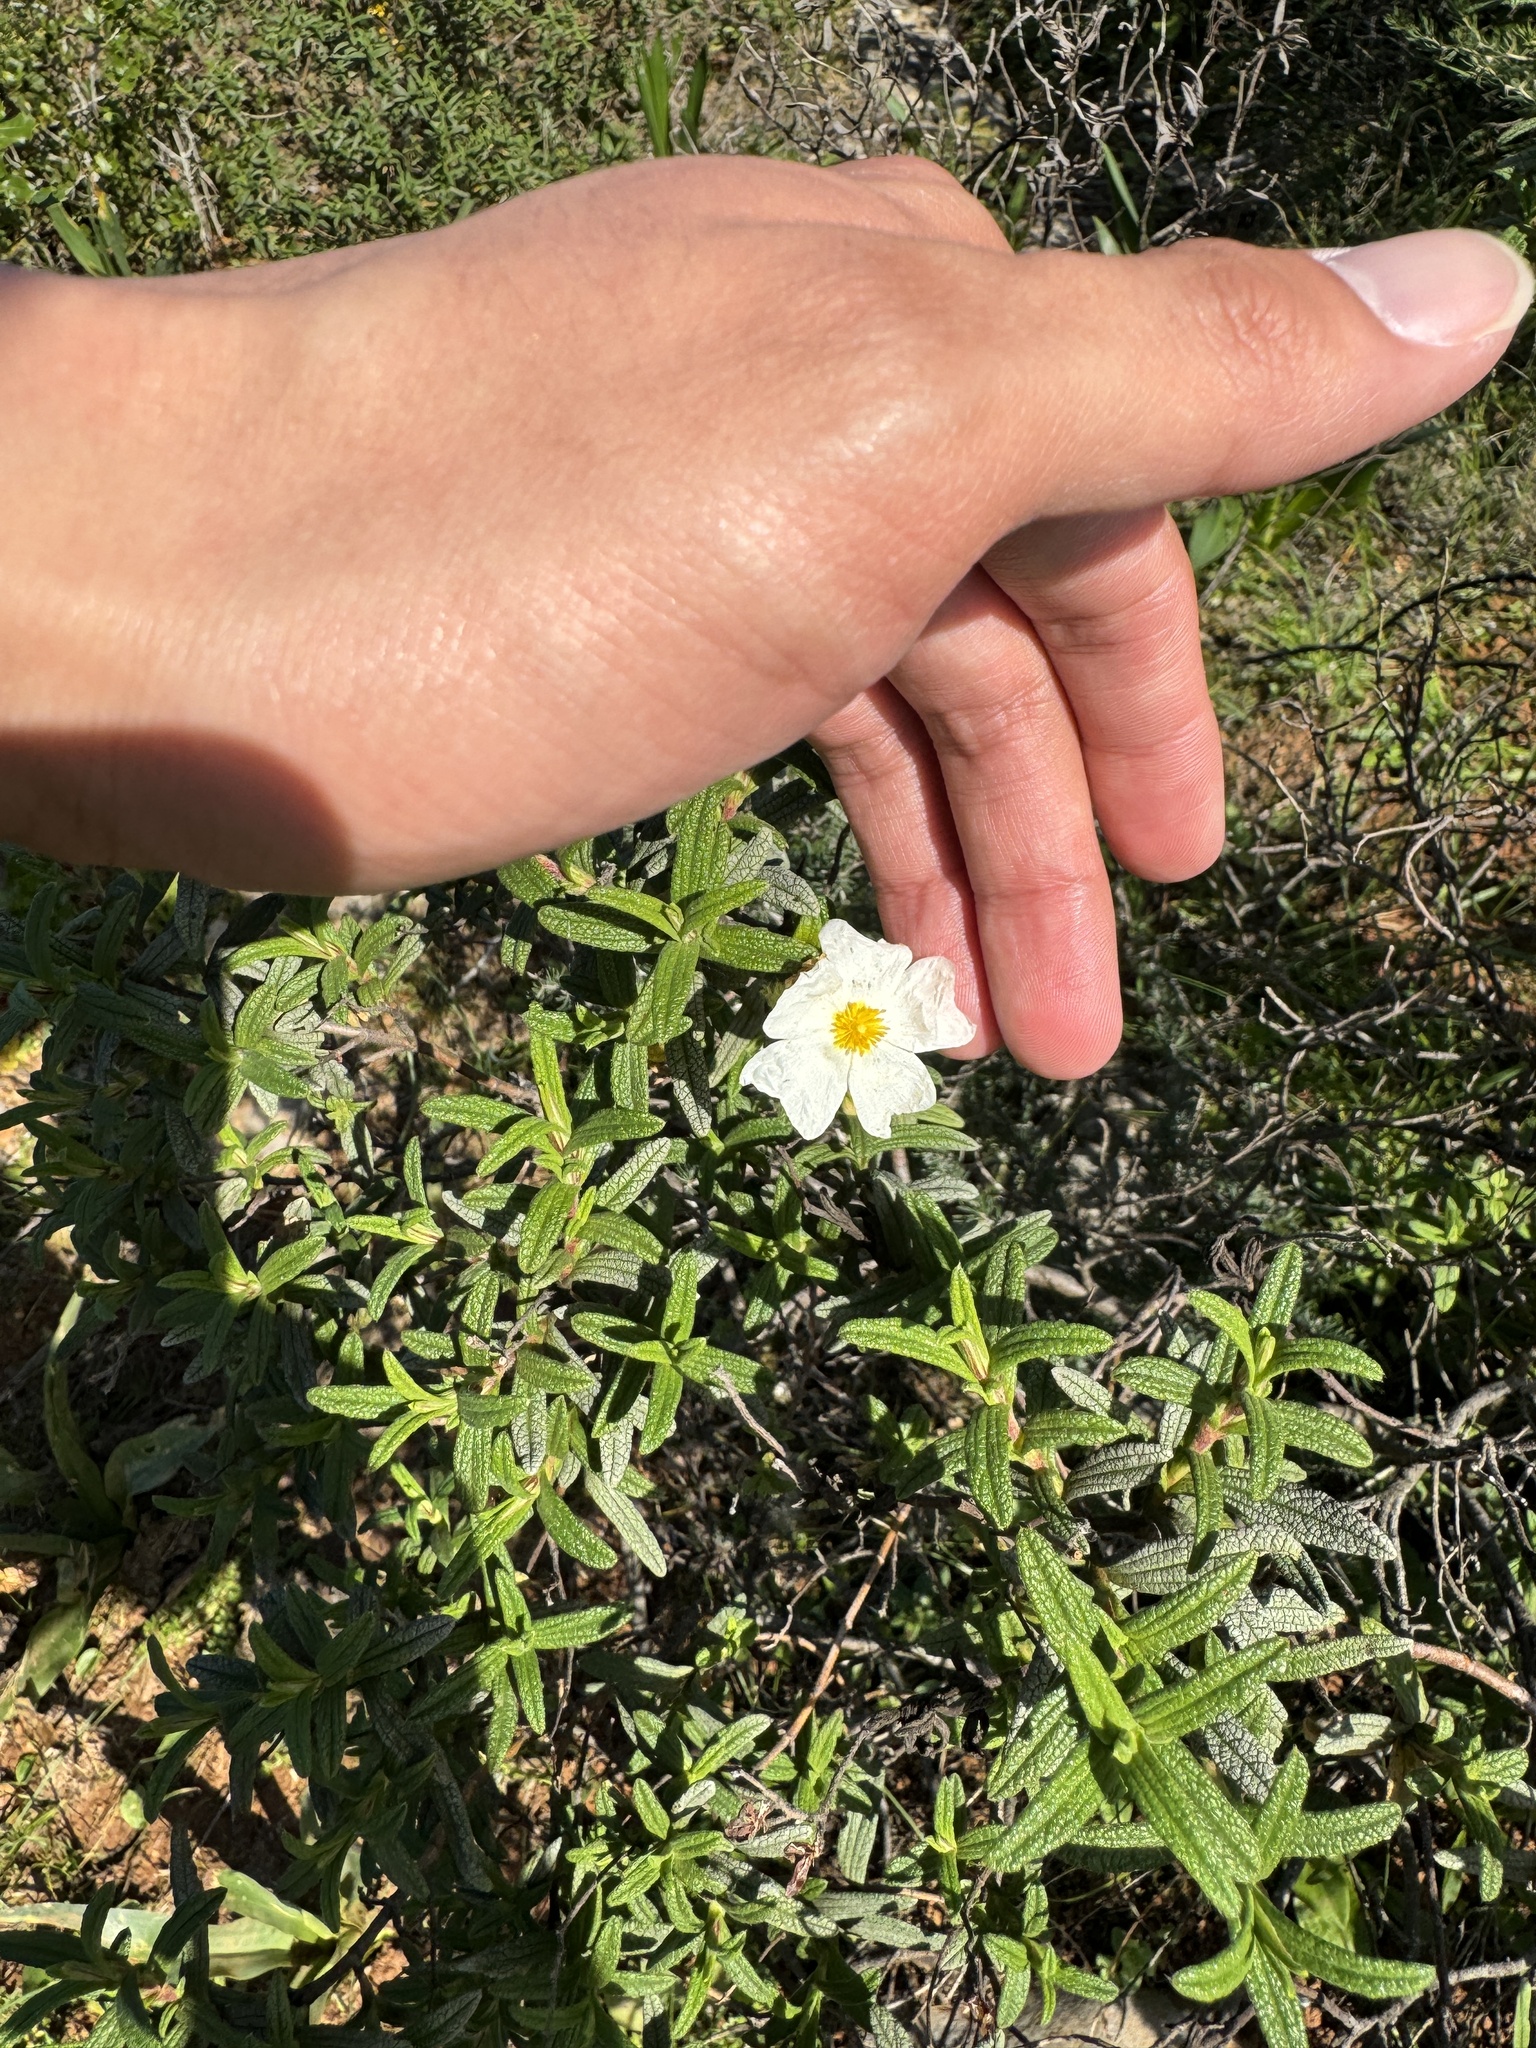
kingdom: Plantae
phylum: Tracheophyta
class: Magnoliopsida
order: Malvales
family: Cistaceae
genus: Cistus
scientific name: Cistus monspeliensis
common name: Montpelier cistus
